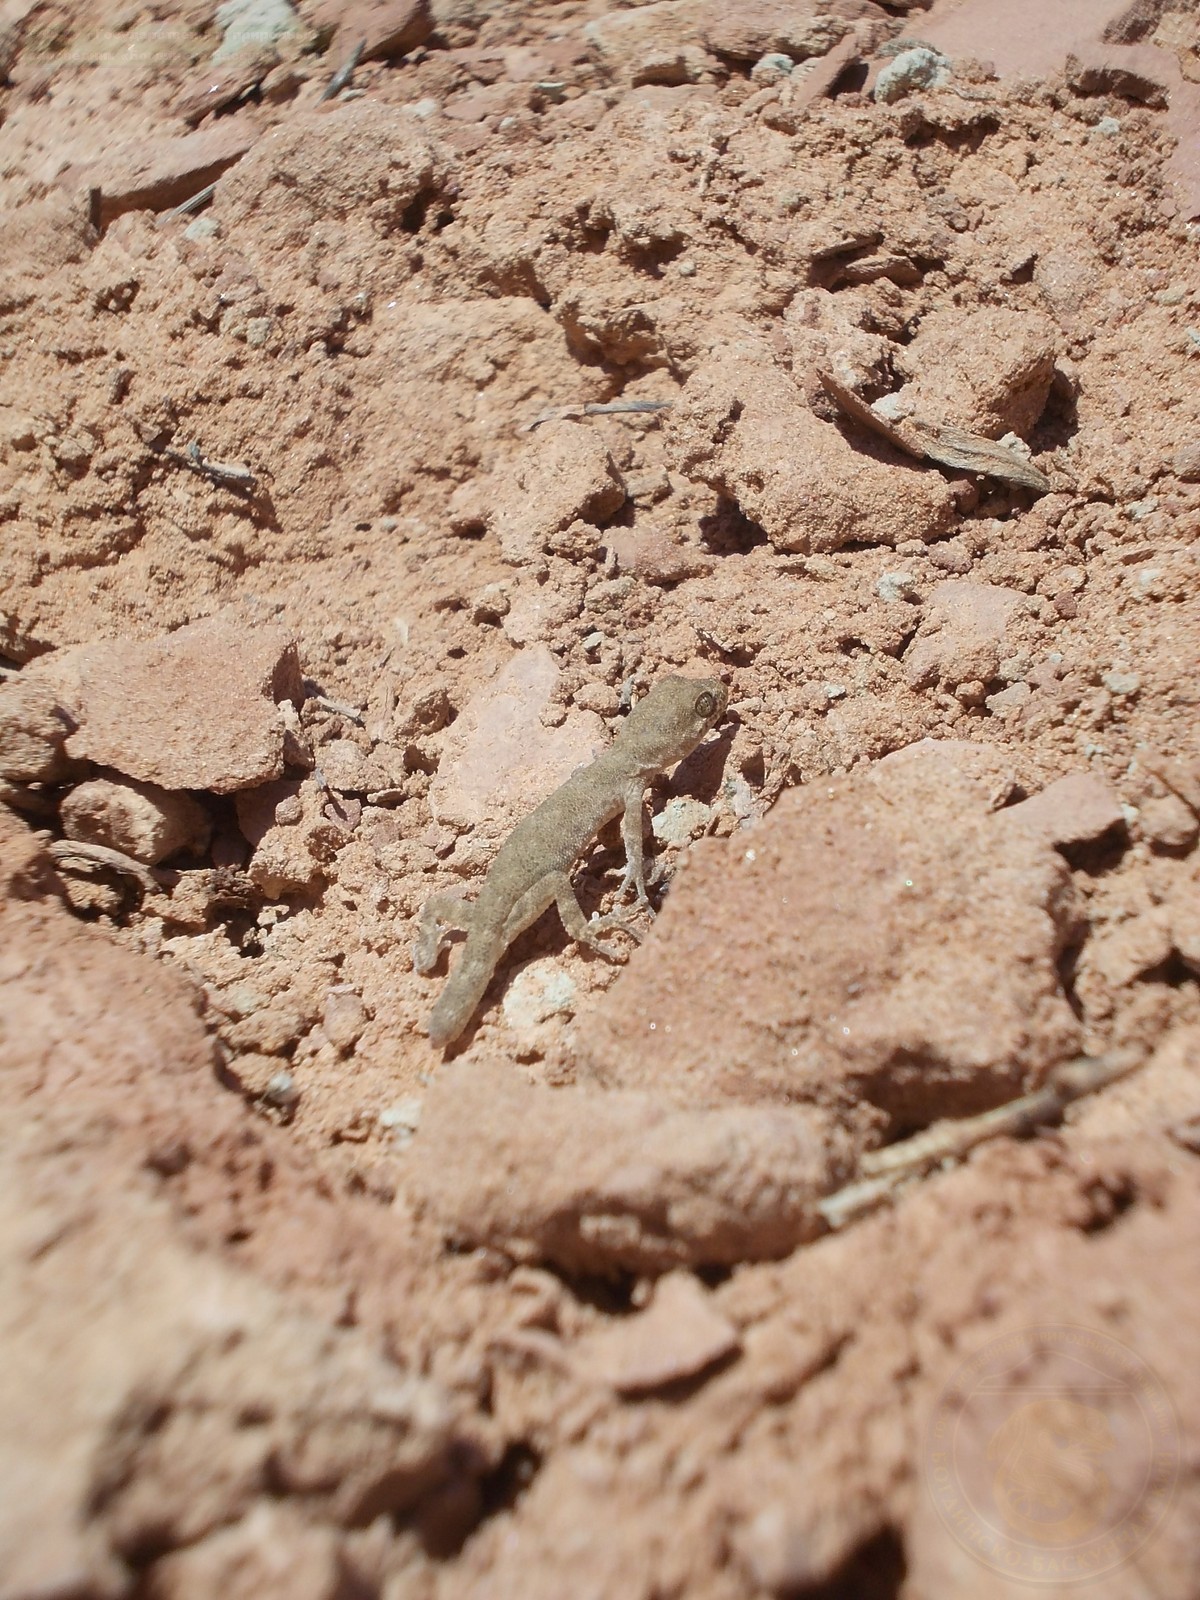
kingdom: Animalia
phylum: Chordata
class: Squamata
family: Gekkonidae
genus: Alsophylax
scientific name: Alsophylax pipiens
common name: Even-fingered gecko
